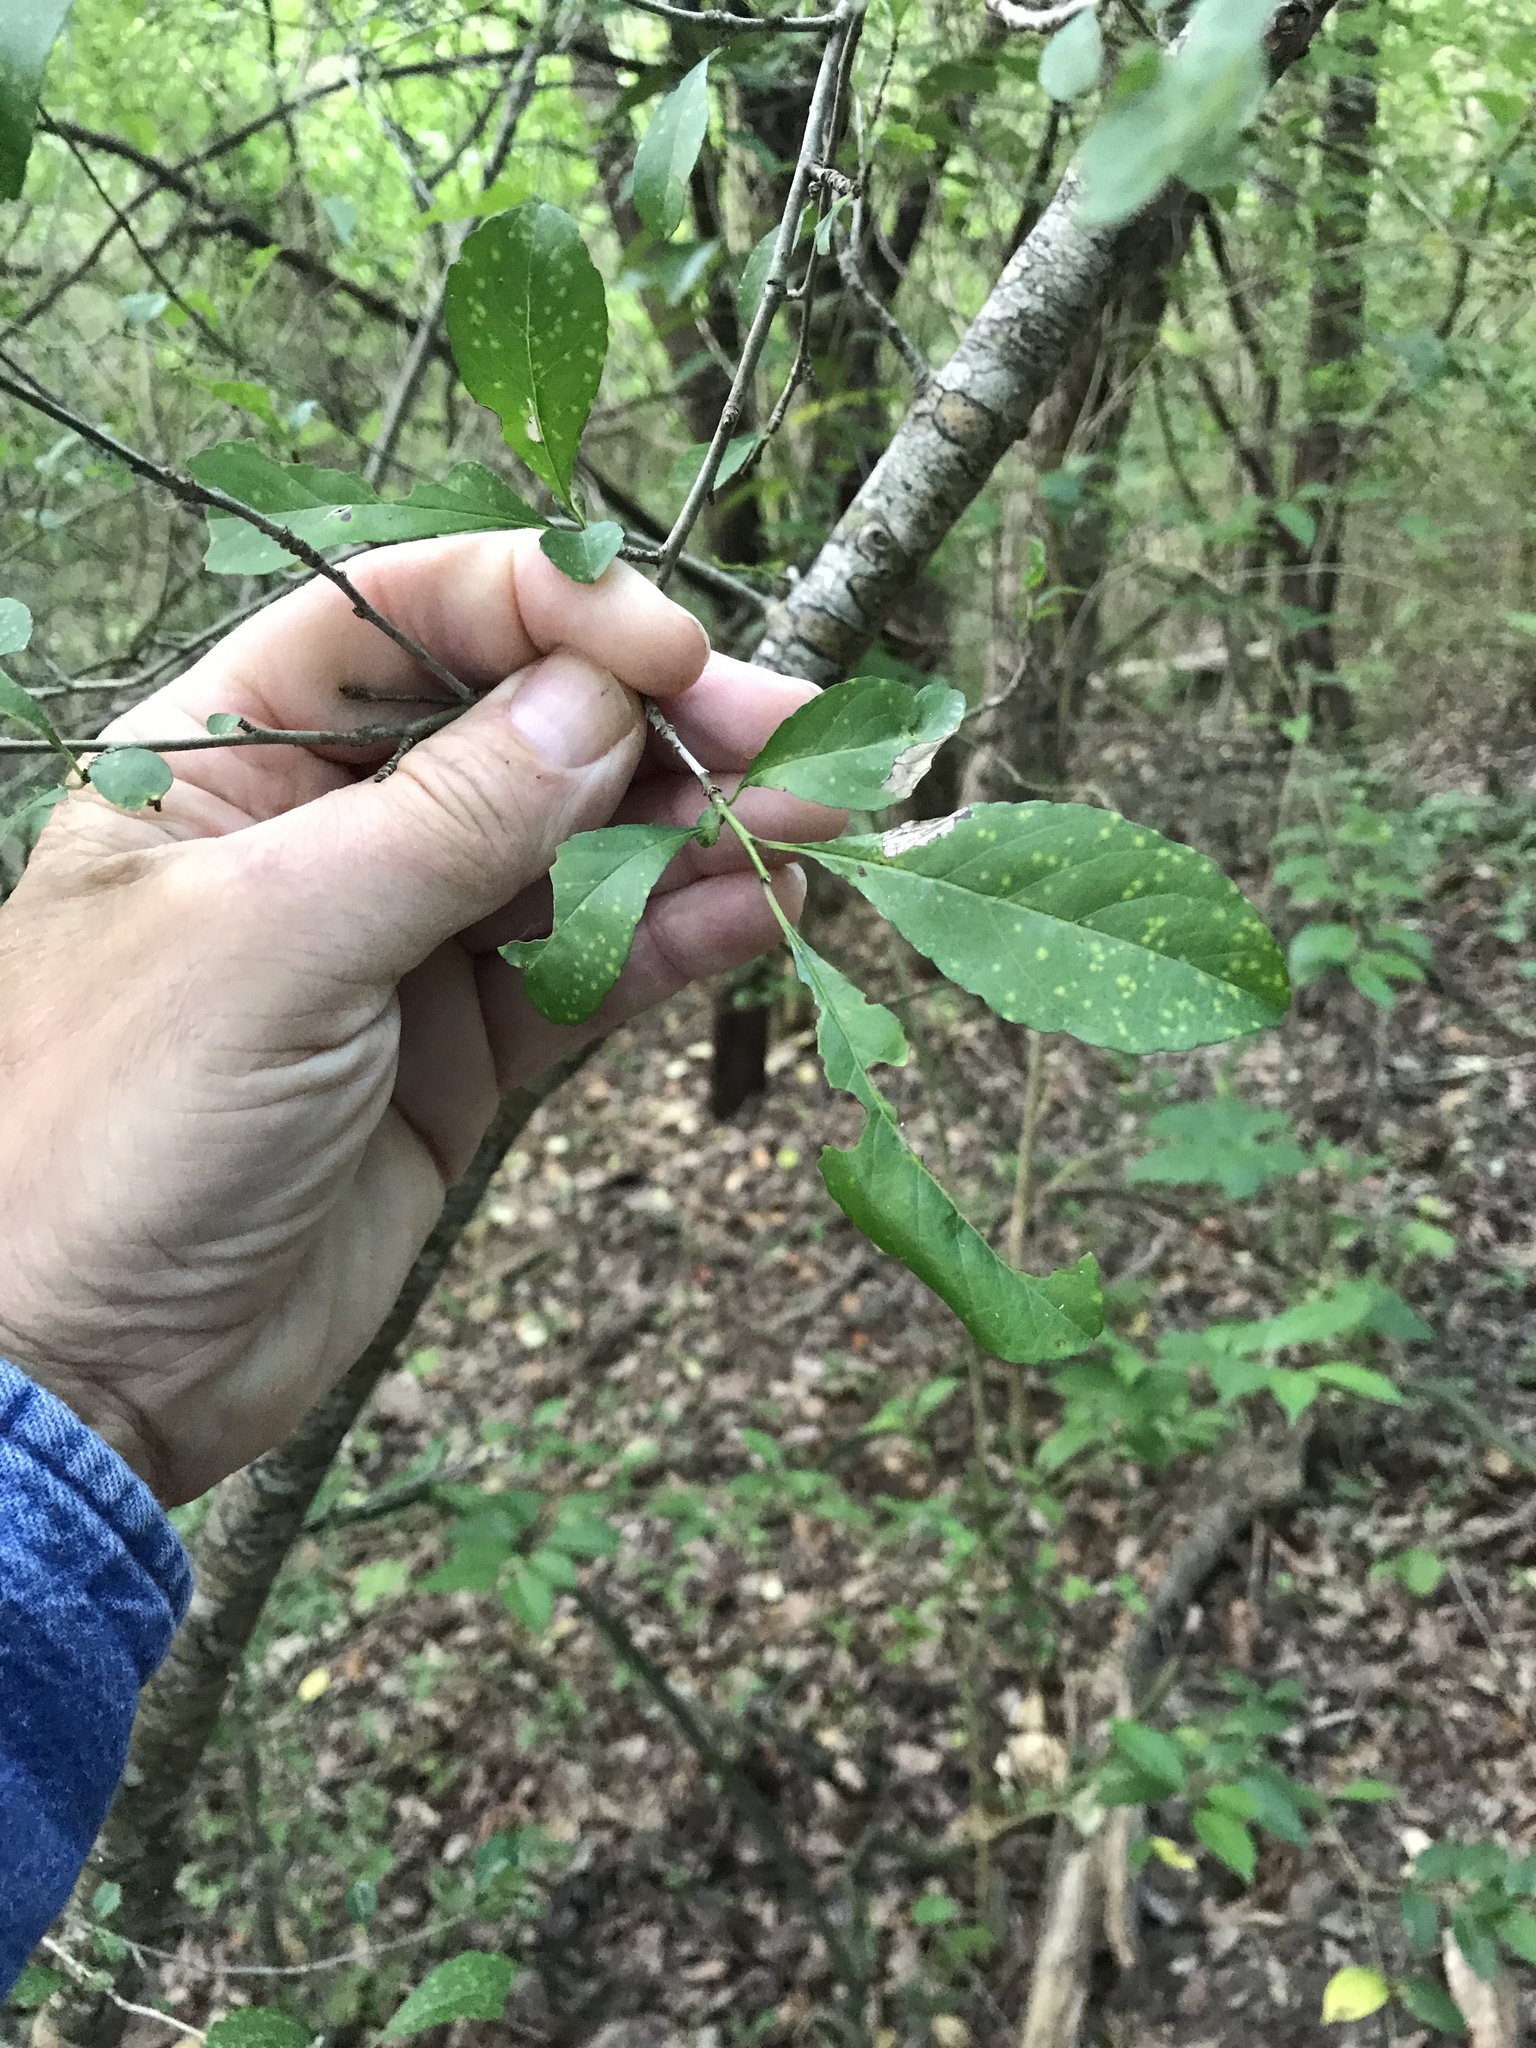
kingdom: Plantae
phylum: Tracheophyta
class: Magnoliopsida
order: Aquifoliales
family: Aquifoliaceae
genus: Ilex
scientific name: Ilex decidua
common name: Possum-haw
